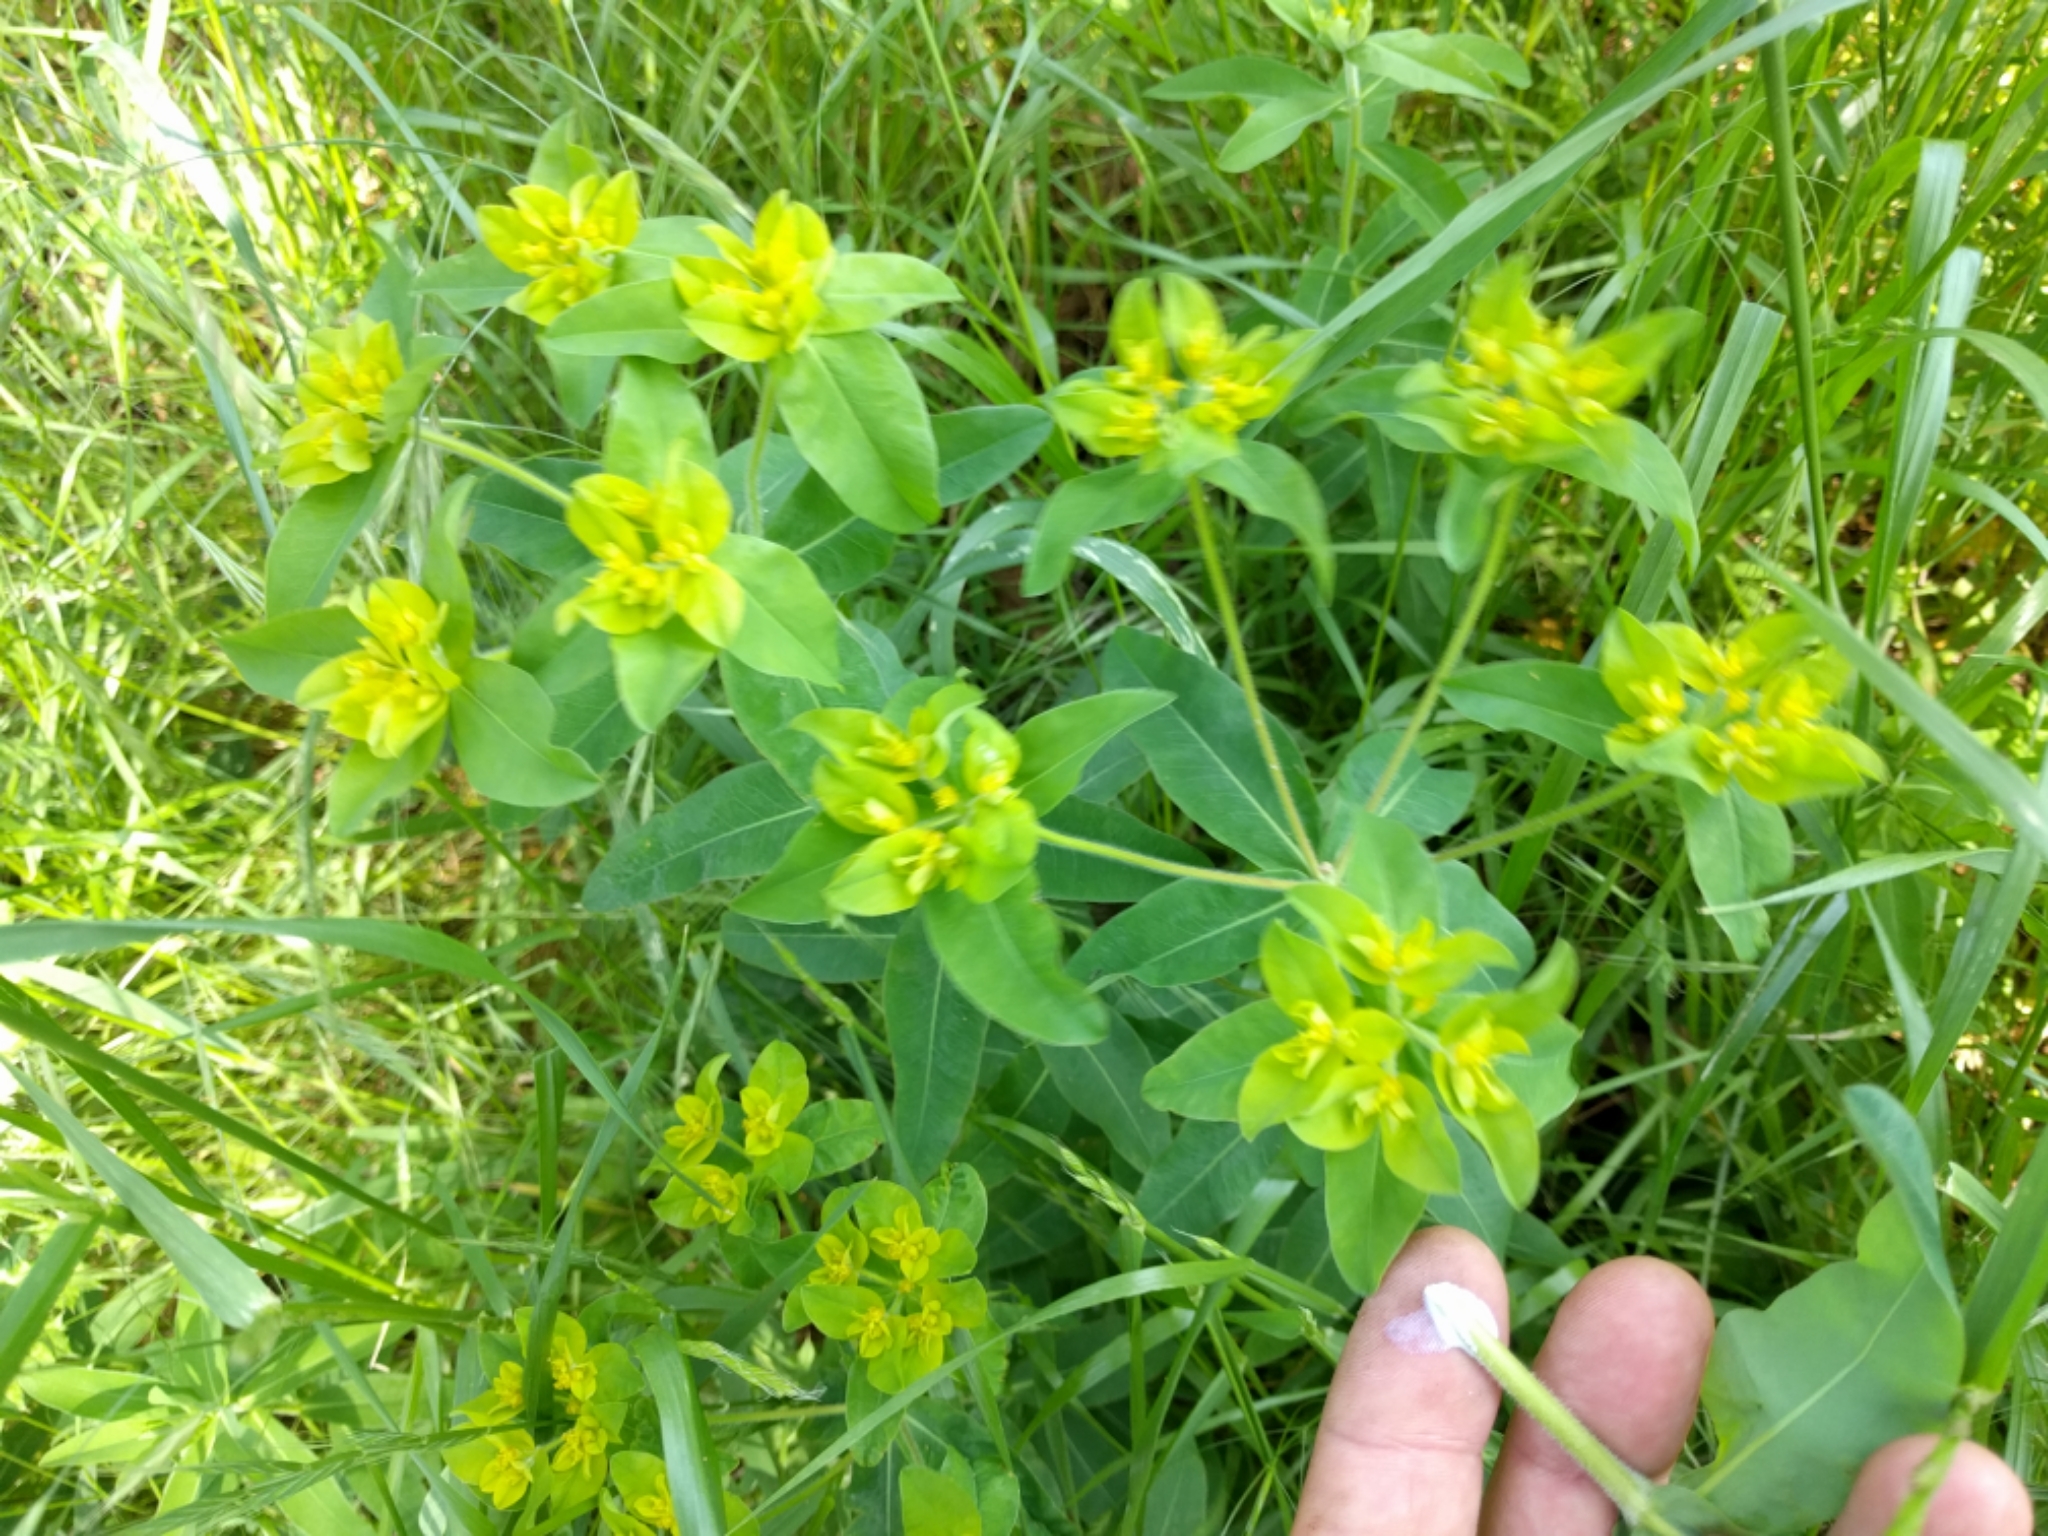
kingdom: Plantae
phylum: Tracheophyta
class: Magnoliopsida
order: Malpighiales
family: Euphorbiaceae
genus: Euphorbia
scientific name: Euphorbia oblongata
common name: Balkan spurge
